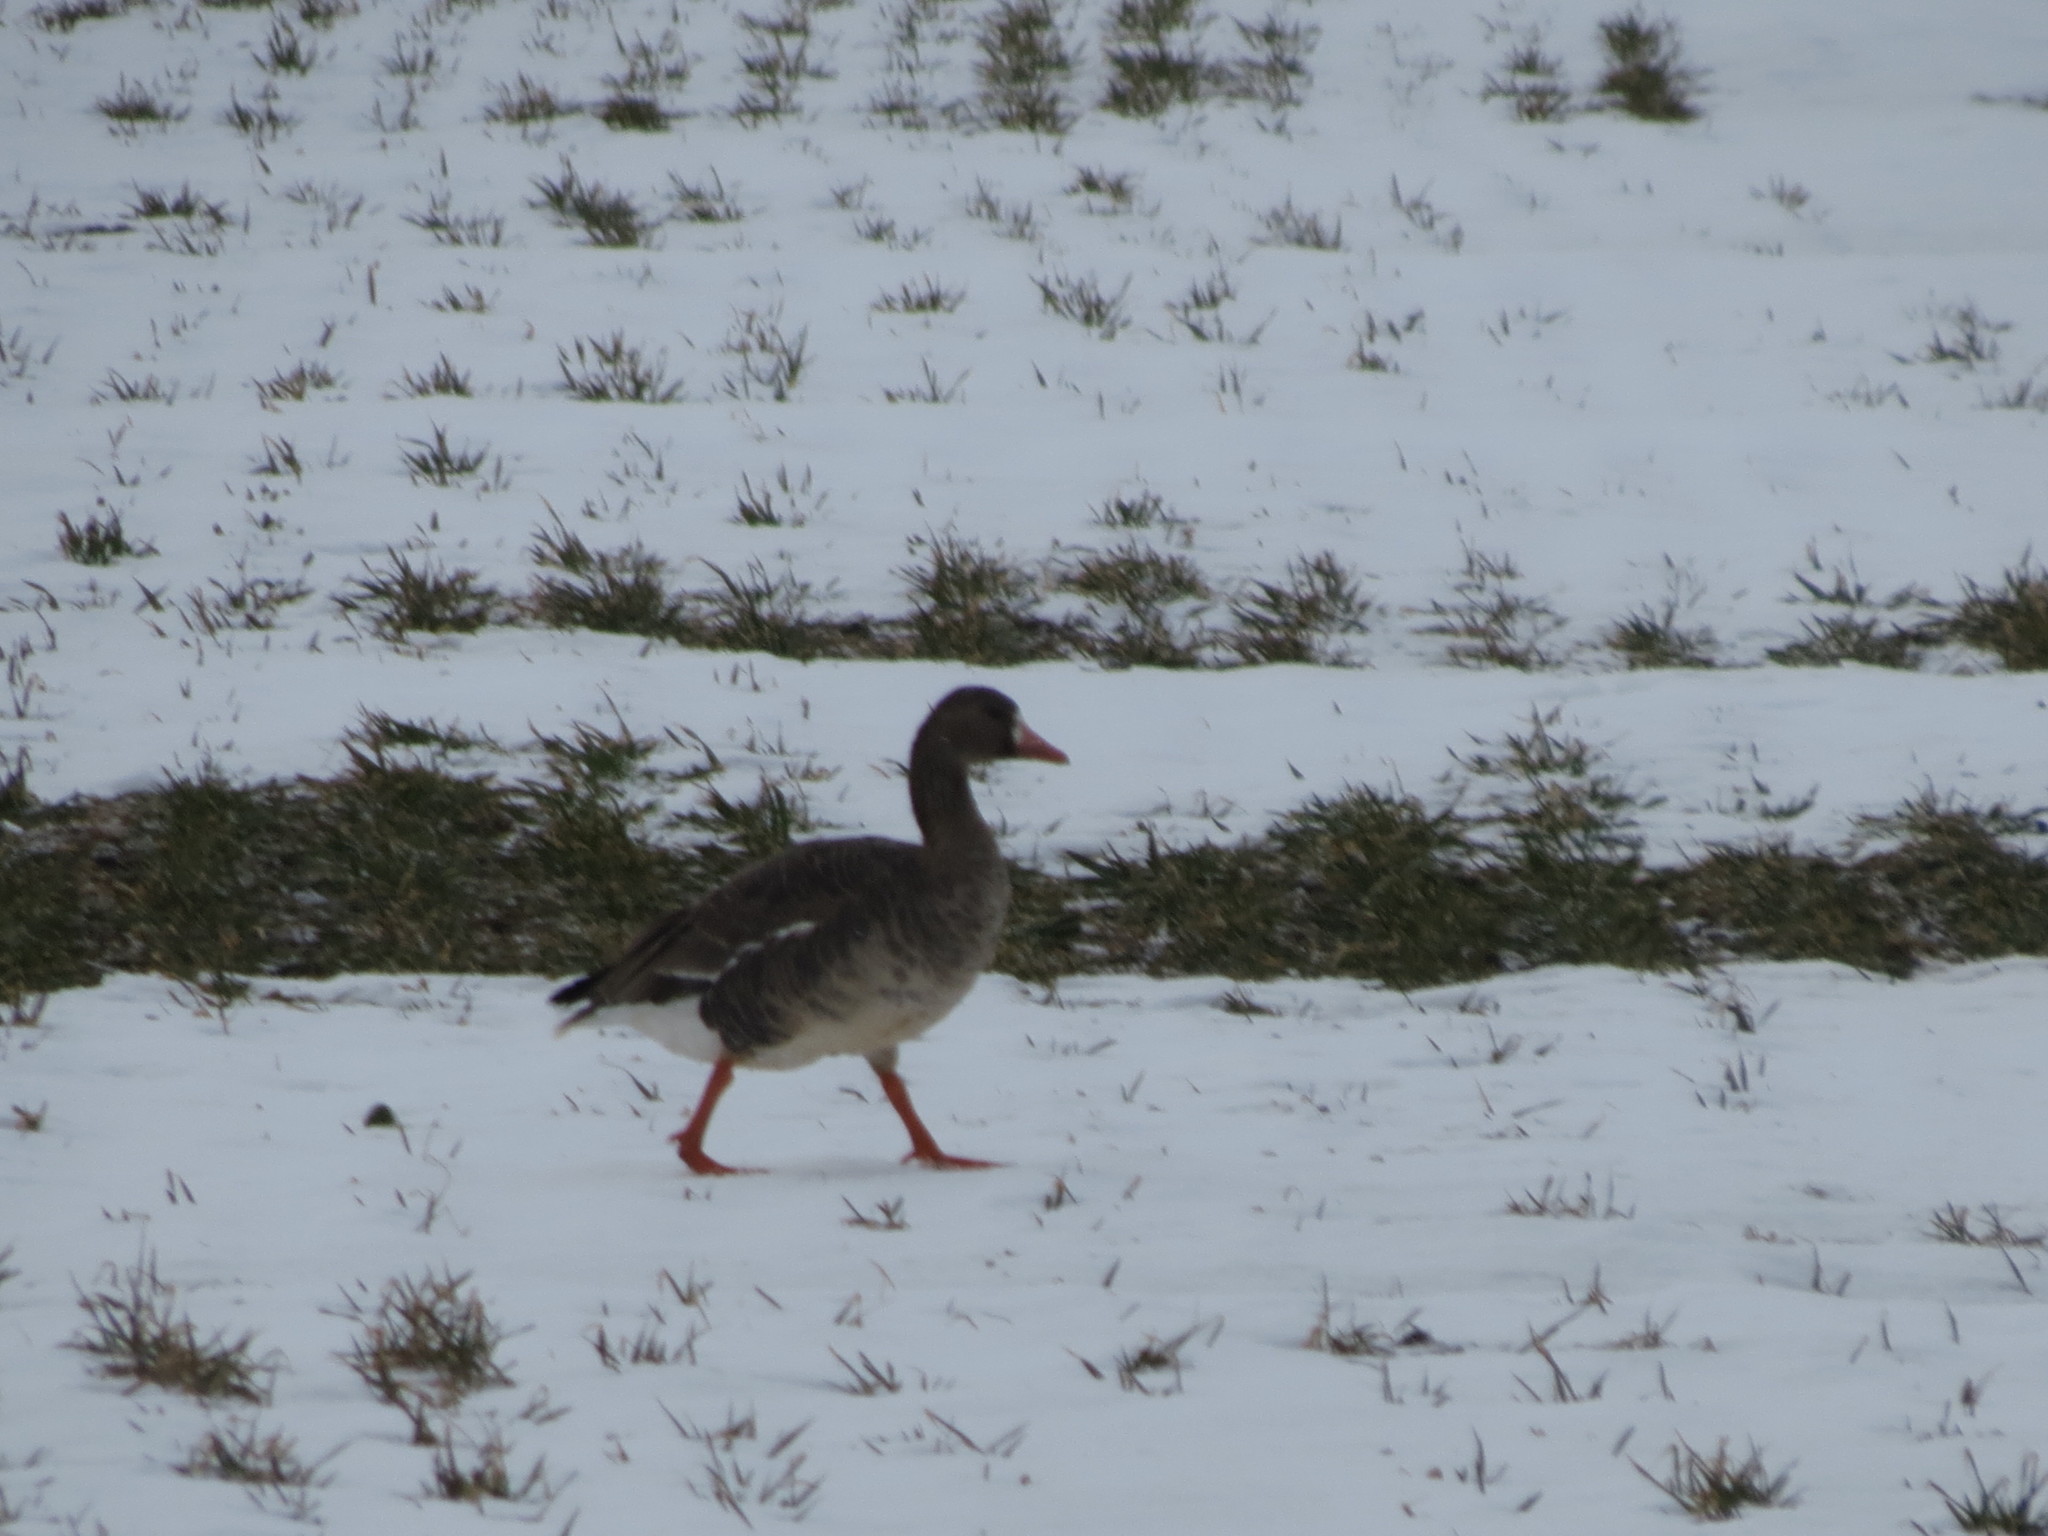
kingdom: Animalia
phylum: Chordata
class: Aves
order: Anseriformes
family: Anatidae
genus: Anser
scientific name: Anser albifrons
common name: Greater white-fronted goose
